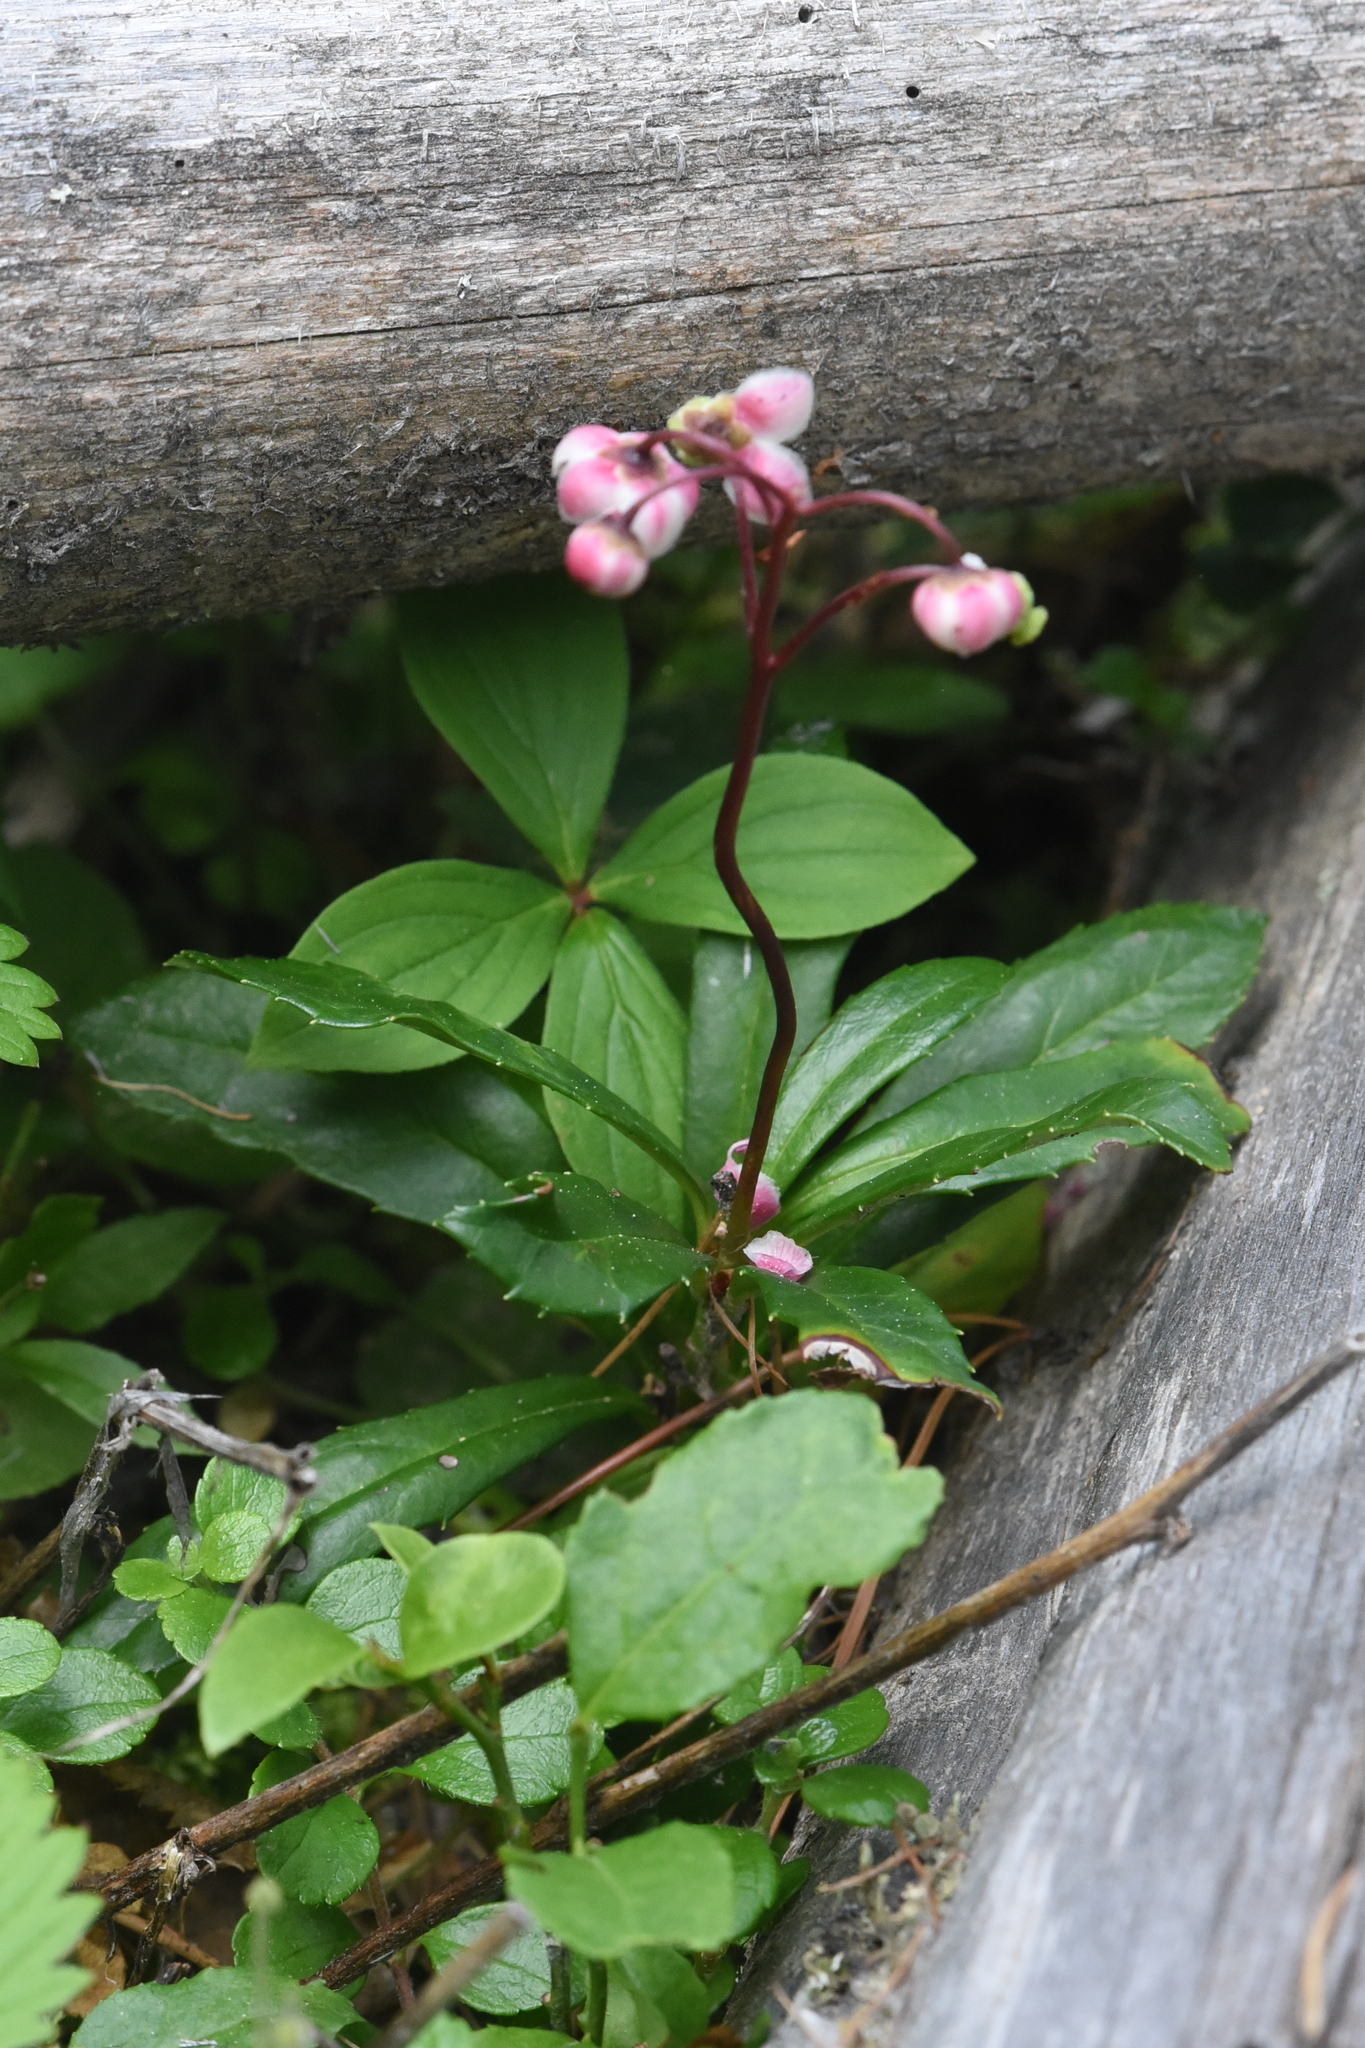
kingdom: Plantae
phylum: Tracheophyta
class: Magnoliopsida
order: Ericales
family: Ericaceae
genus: Chimaphila
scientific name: Chimaphila umbellata
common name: Pipsissewa
